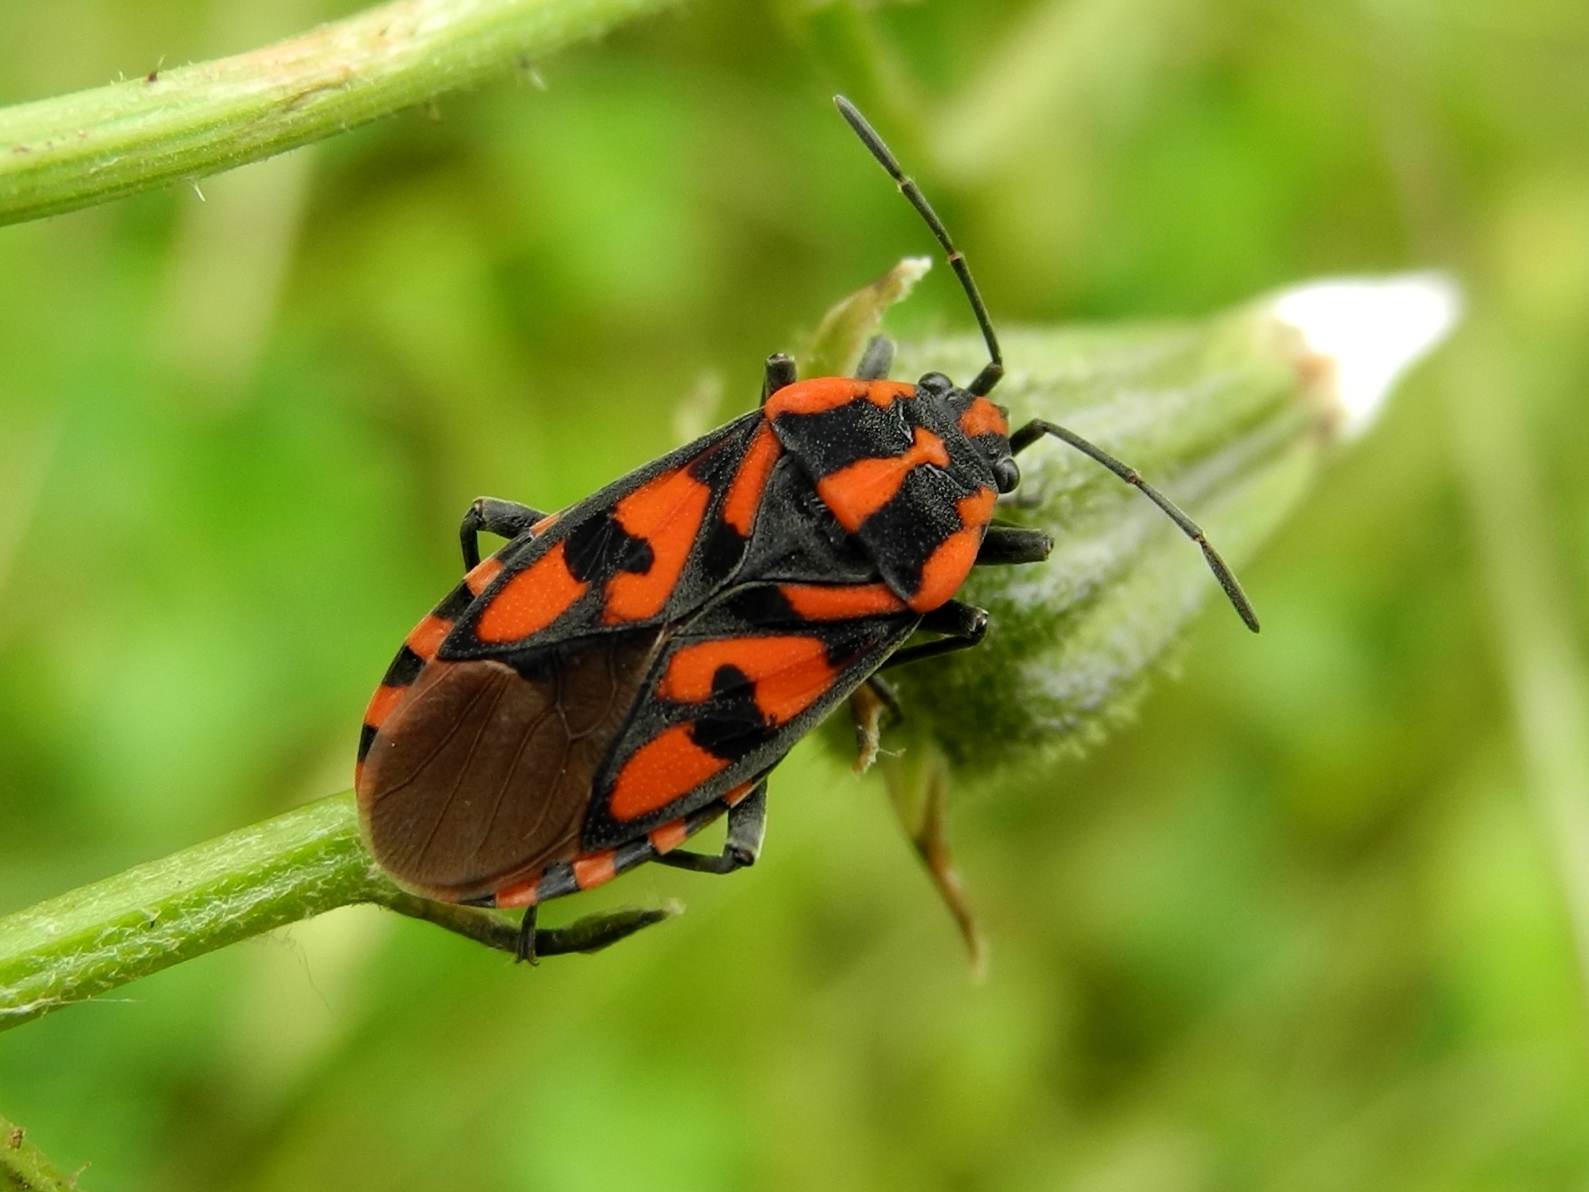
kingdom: Animalia
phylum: Arthropoda
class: Insecta
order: Hemiptera
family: Lygaeidae
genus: Spilostethus
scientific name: Spilostethus saxatilis
